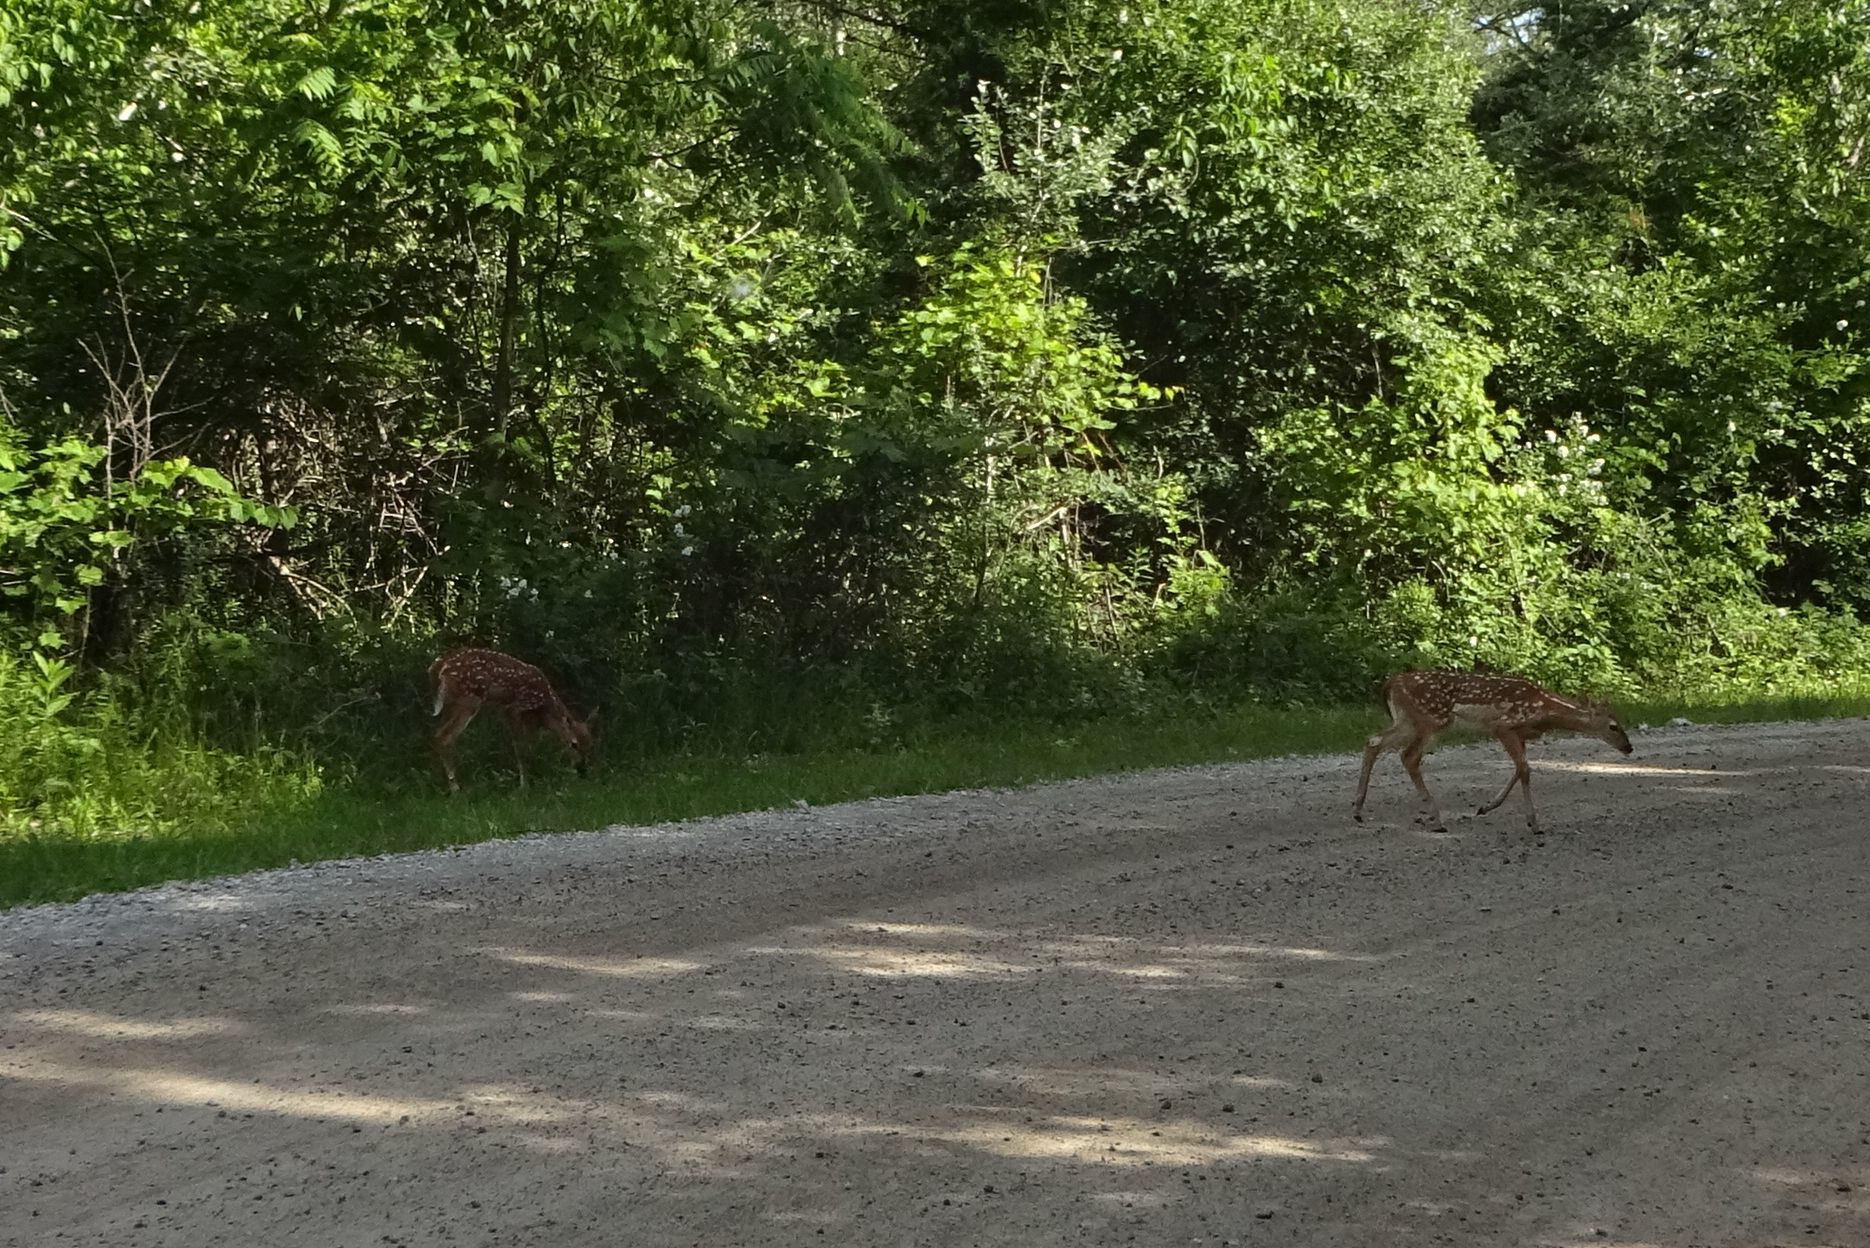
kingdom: Animalia
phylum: Chordata
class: Mammalia
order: Artiodactyla
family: Cervidae
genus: Odocoileus
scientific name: Odocoileus virginianus
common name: White-tailed deer
